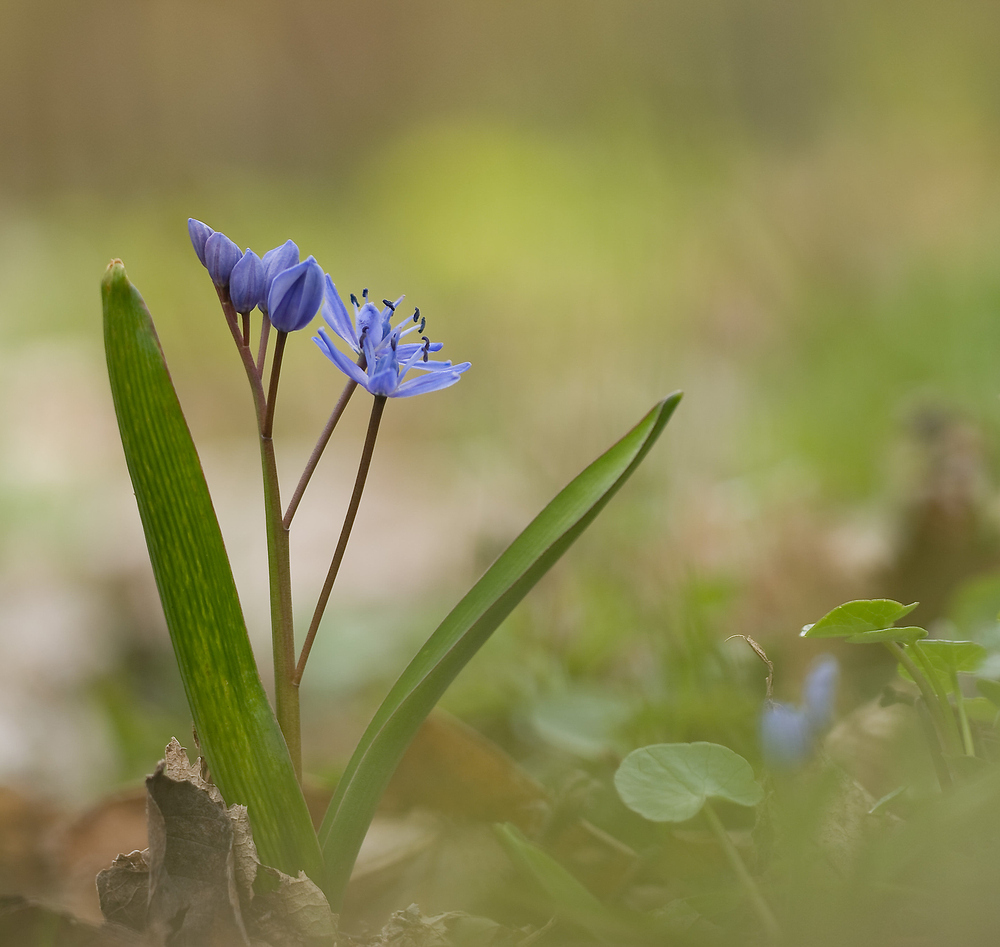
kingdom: Plantae
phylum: Tracheophyta
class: Liliopsida
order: Asparagales
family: Asparagaceae
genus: Scilla
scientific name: Scilla bifolia
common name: Alpine squill
